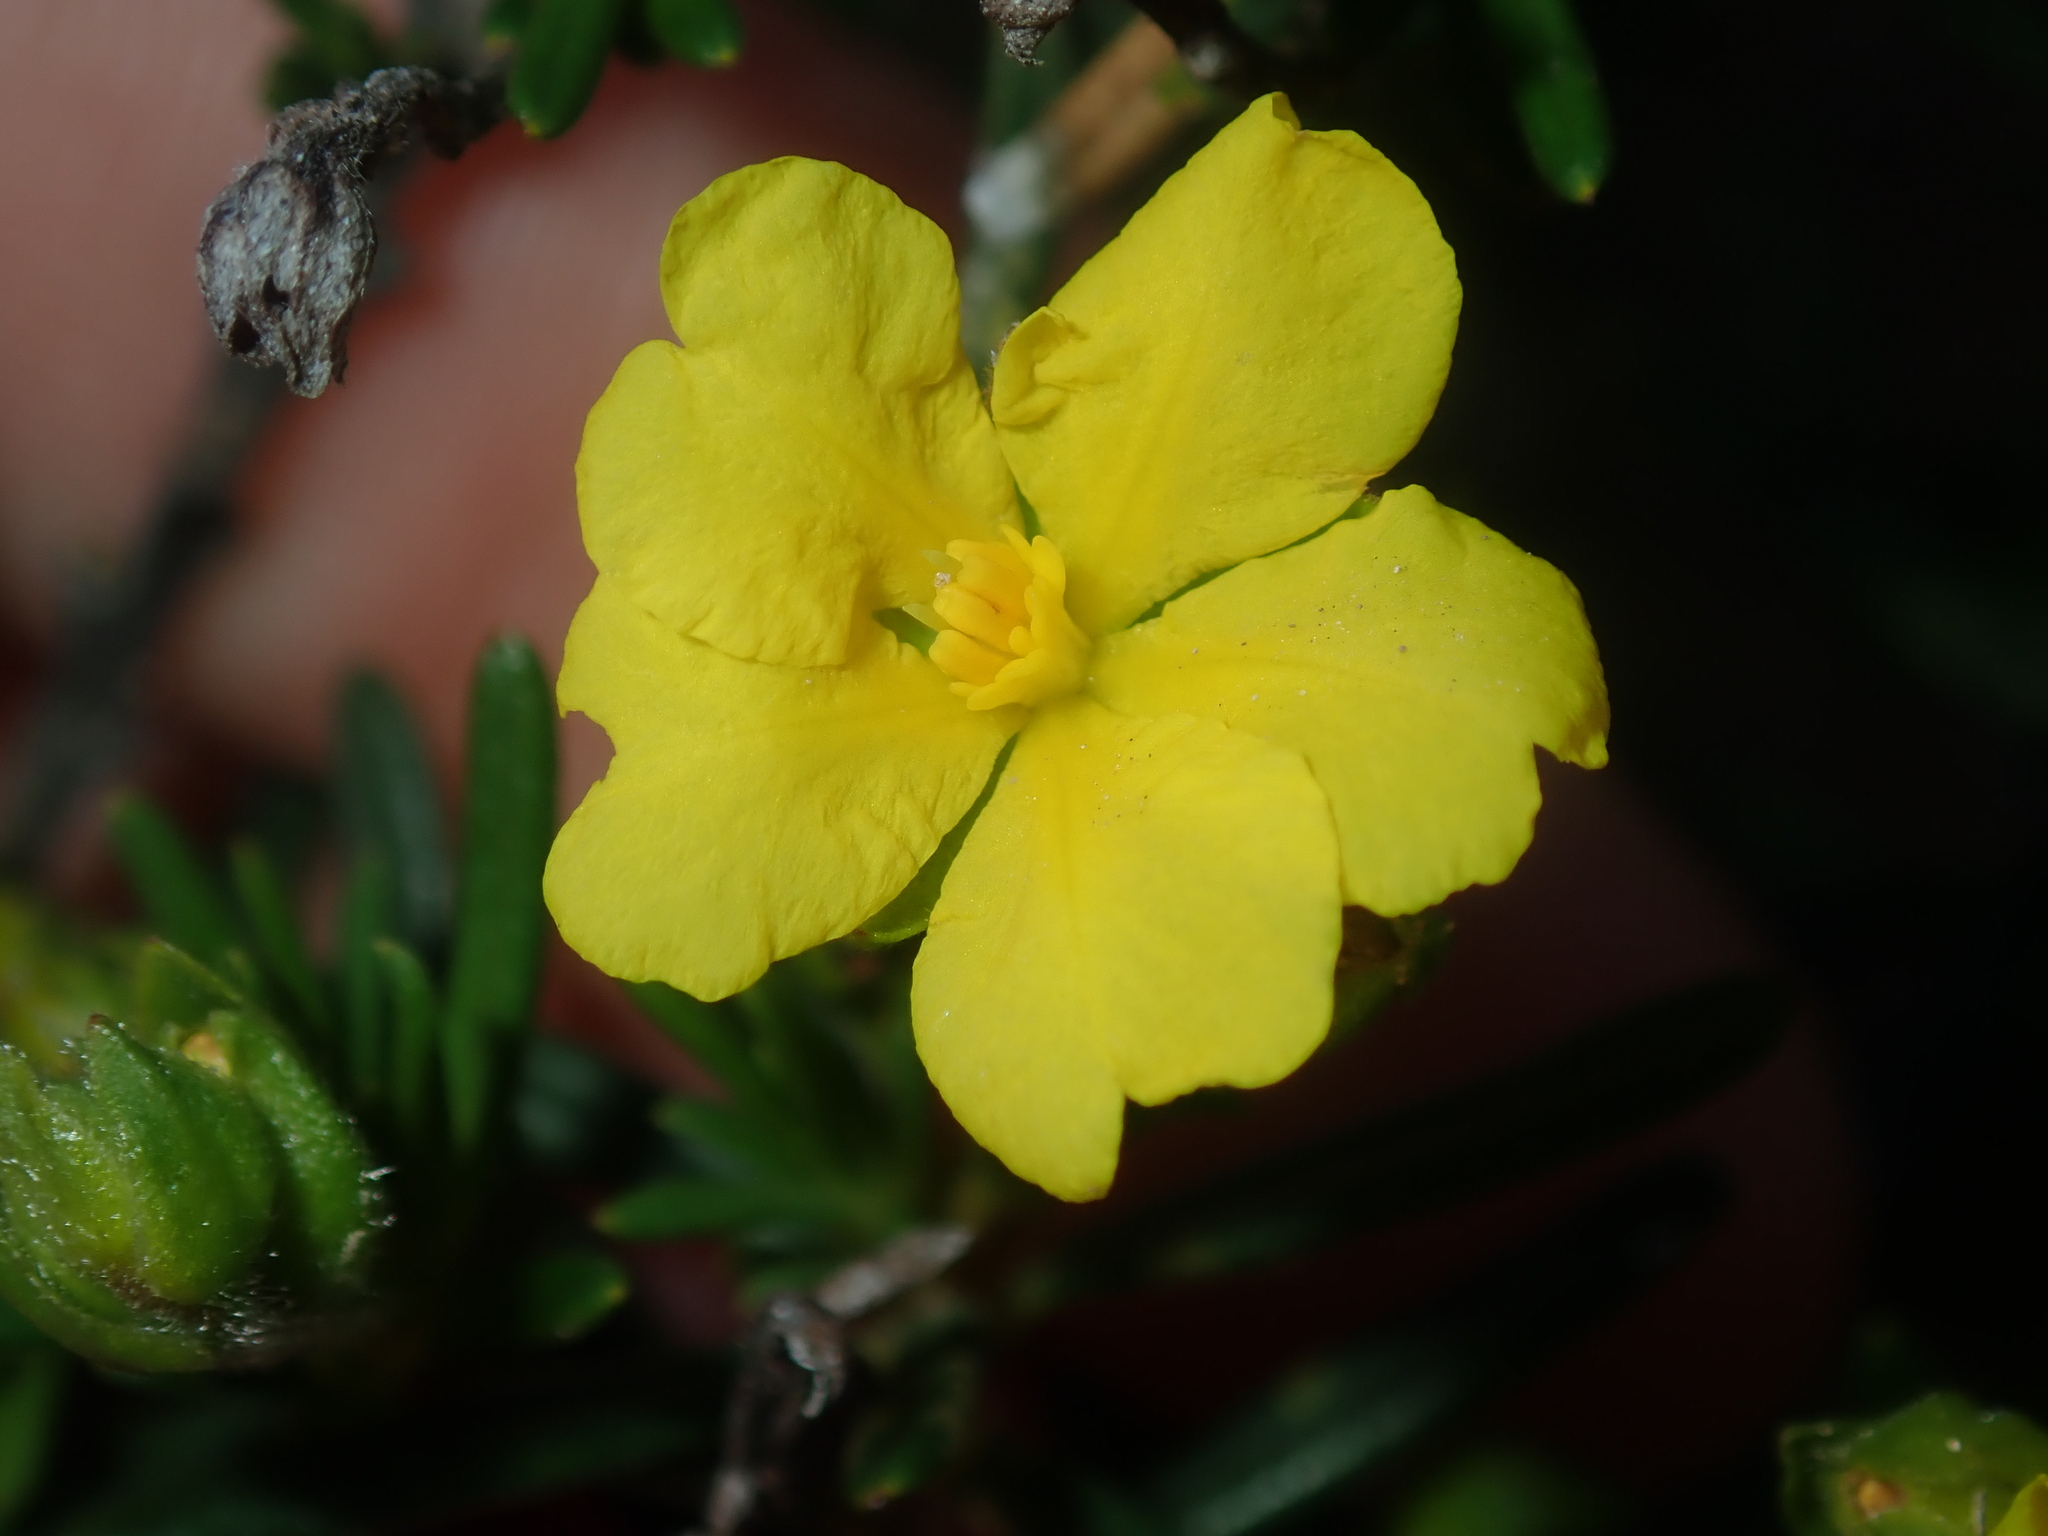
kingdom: Plantae
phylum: Tracheophyta
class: Magnoliopsida
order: Dilleniales
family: Dilleniaceae
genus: Hibbertia
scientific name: Hibbertia spicata
